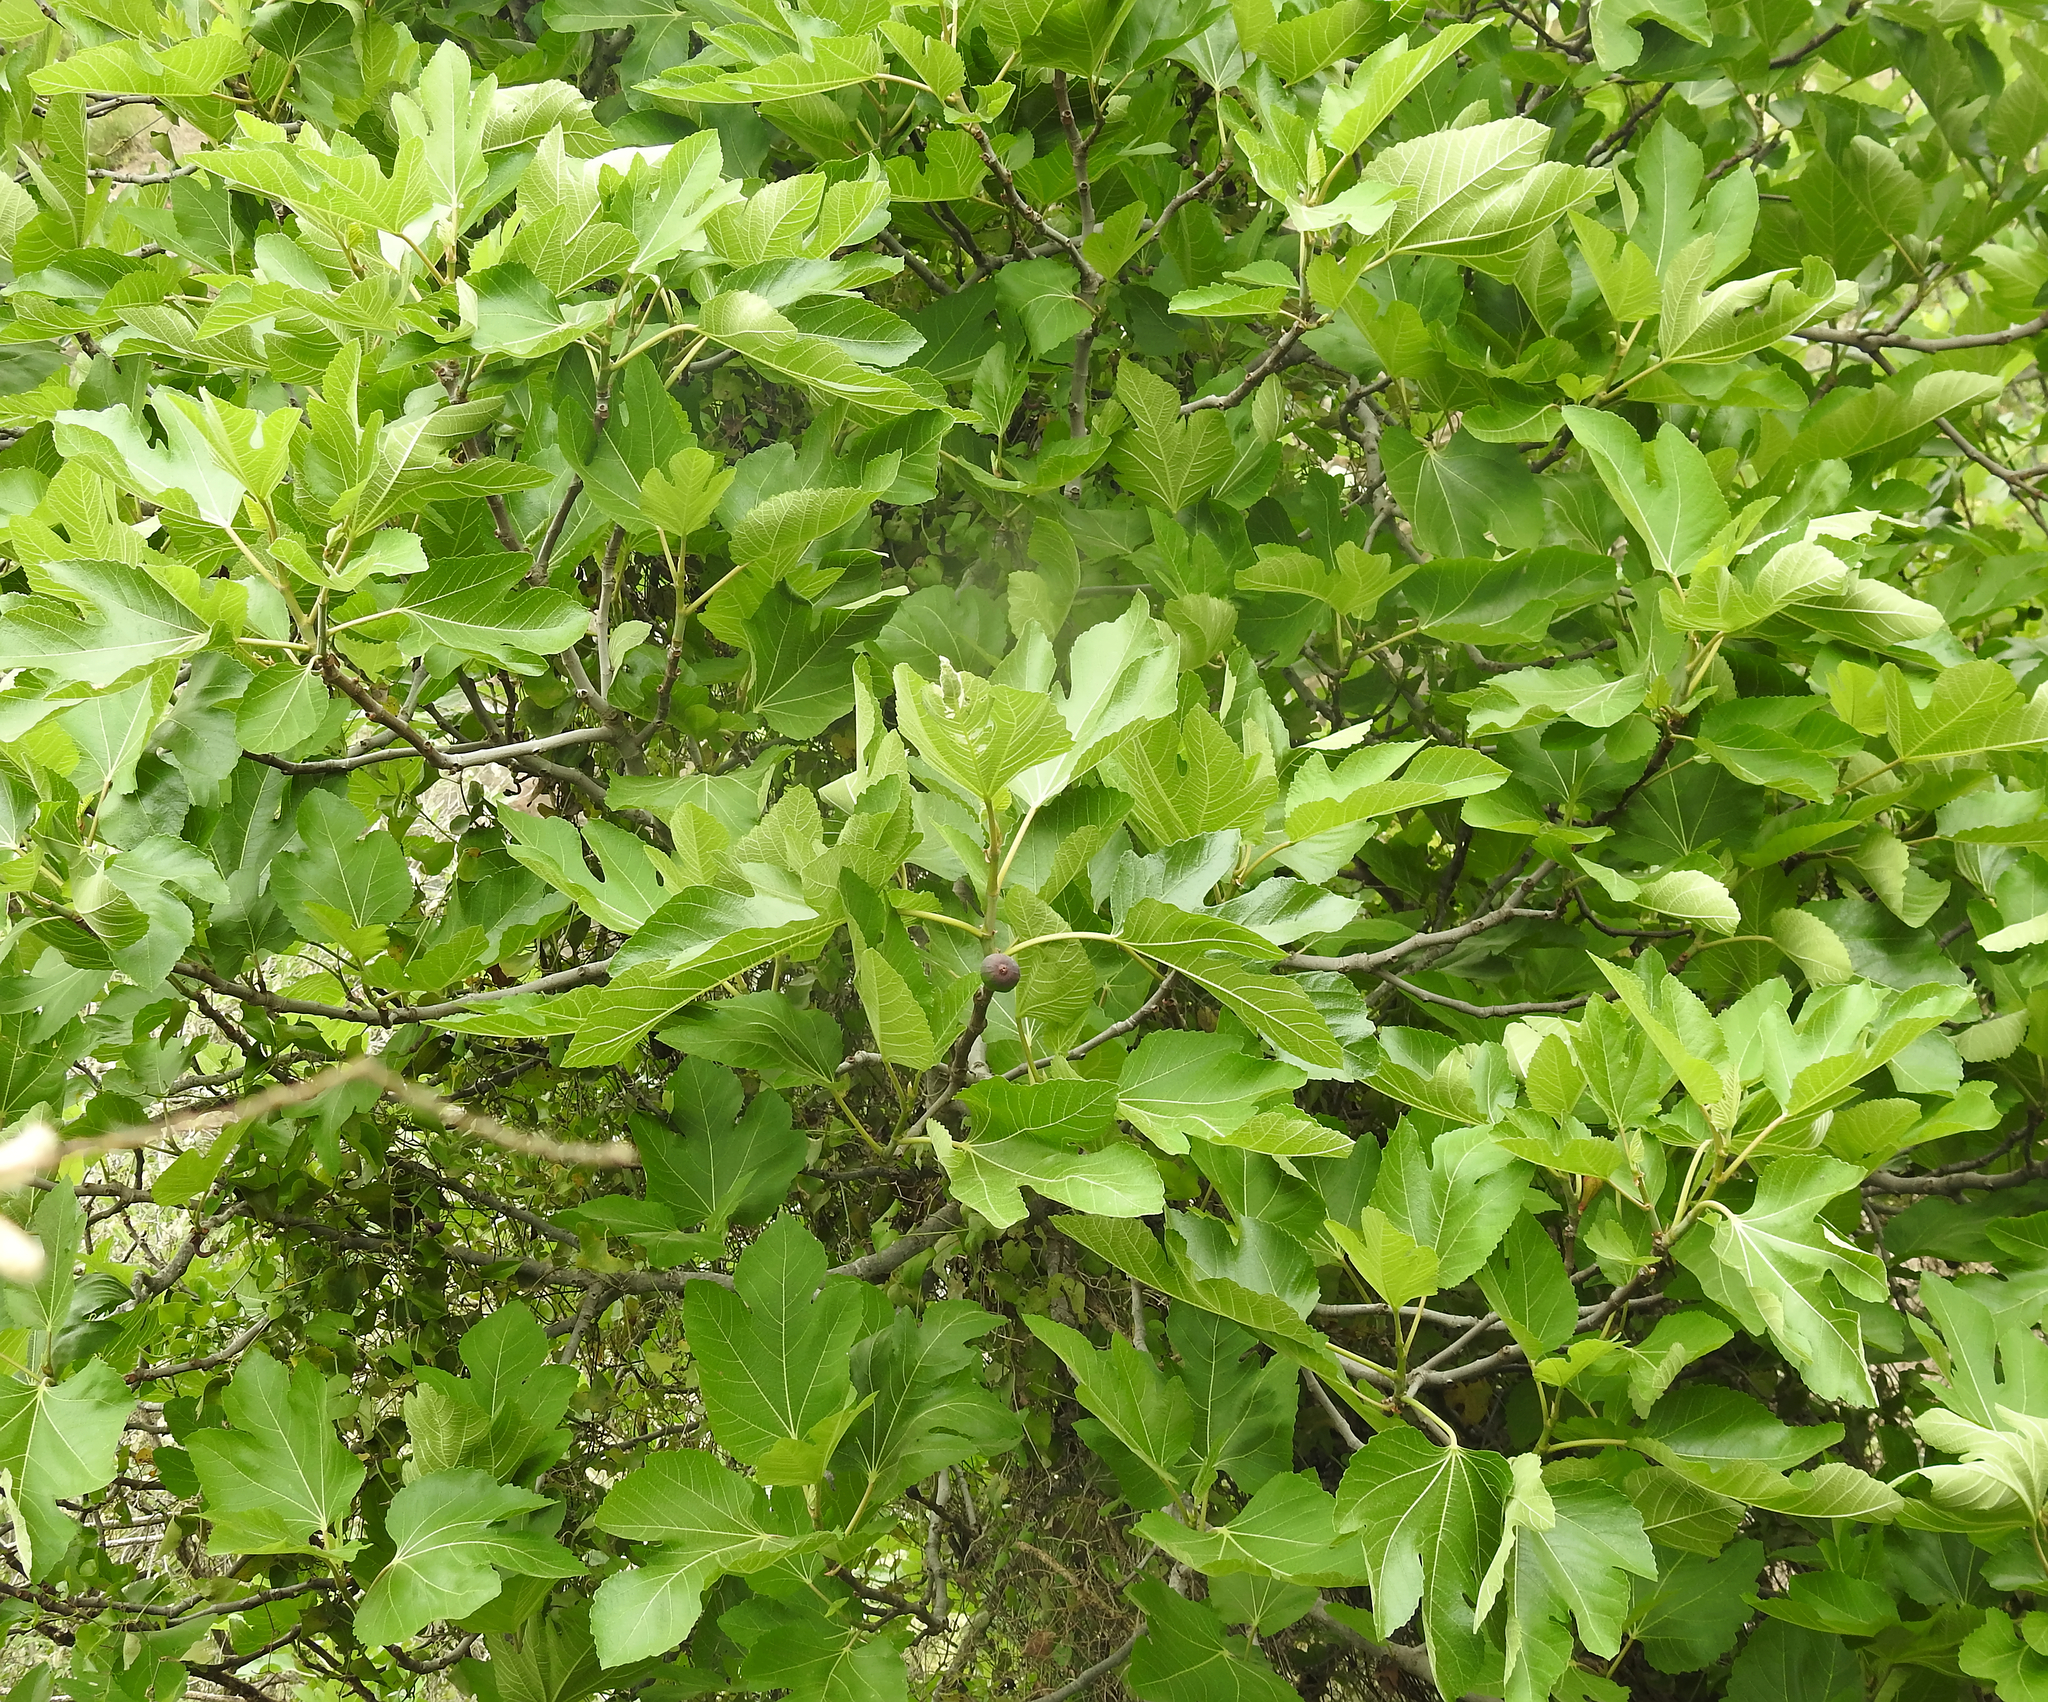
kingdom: Plantae
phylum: Tracheophyta
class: Magnoliopsida
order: Rosales
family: Moraceae
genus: Ficus
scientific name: Ficus carica
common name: Fig
